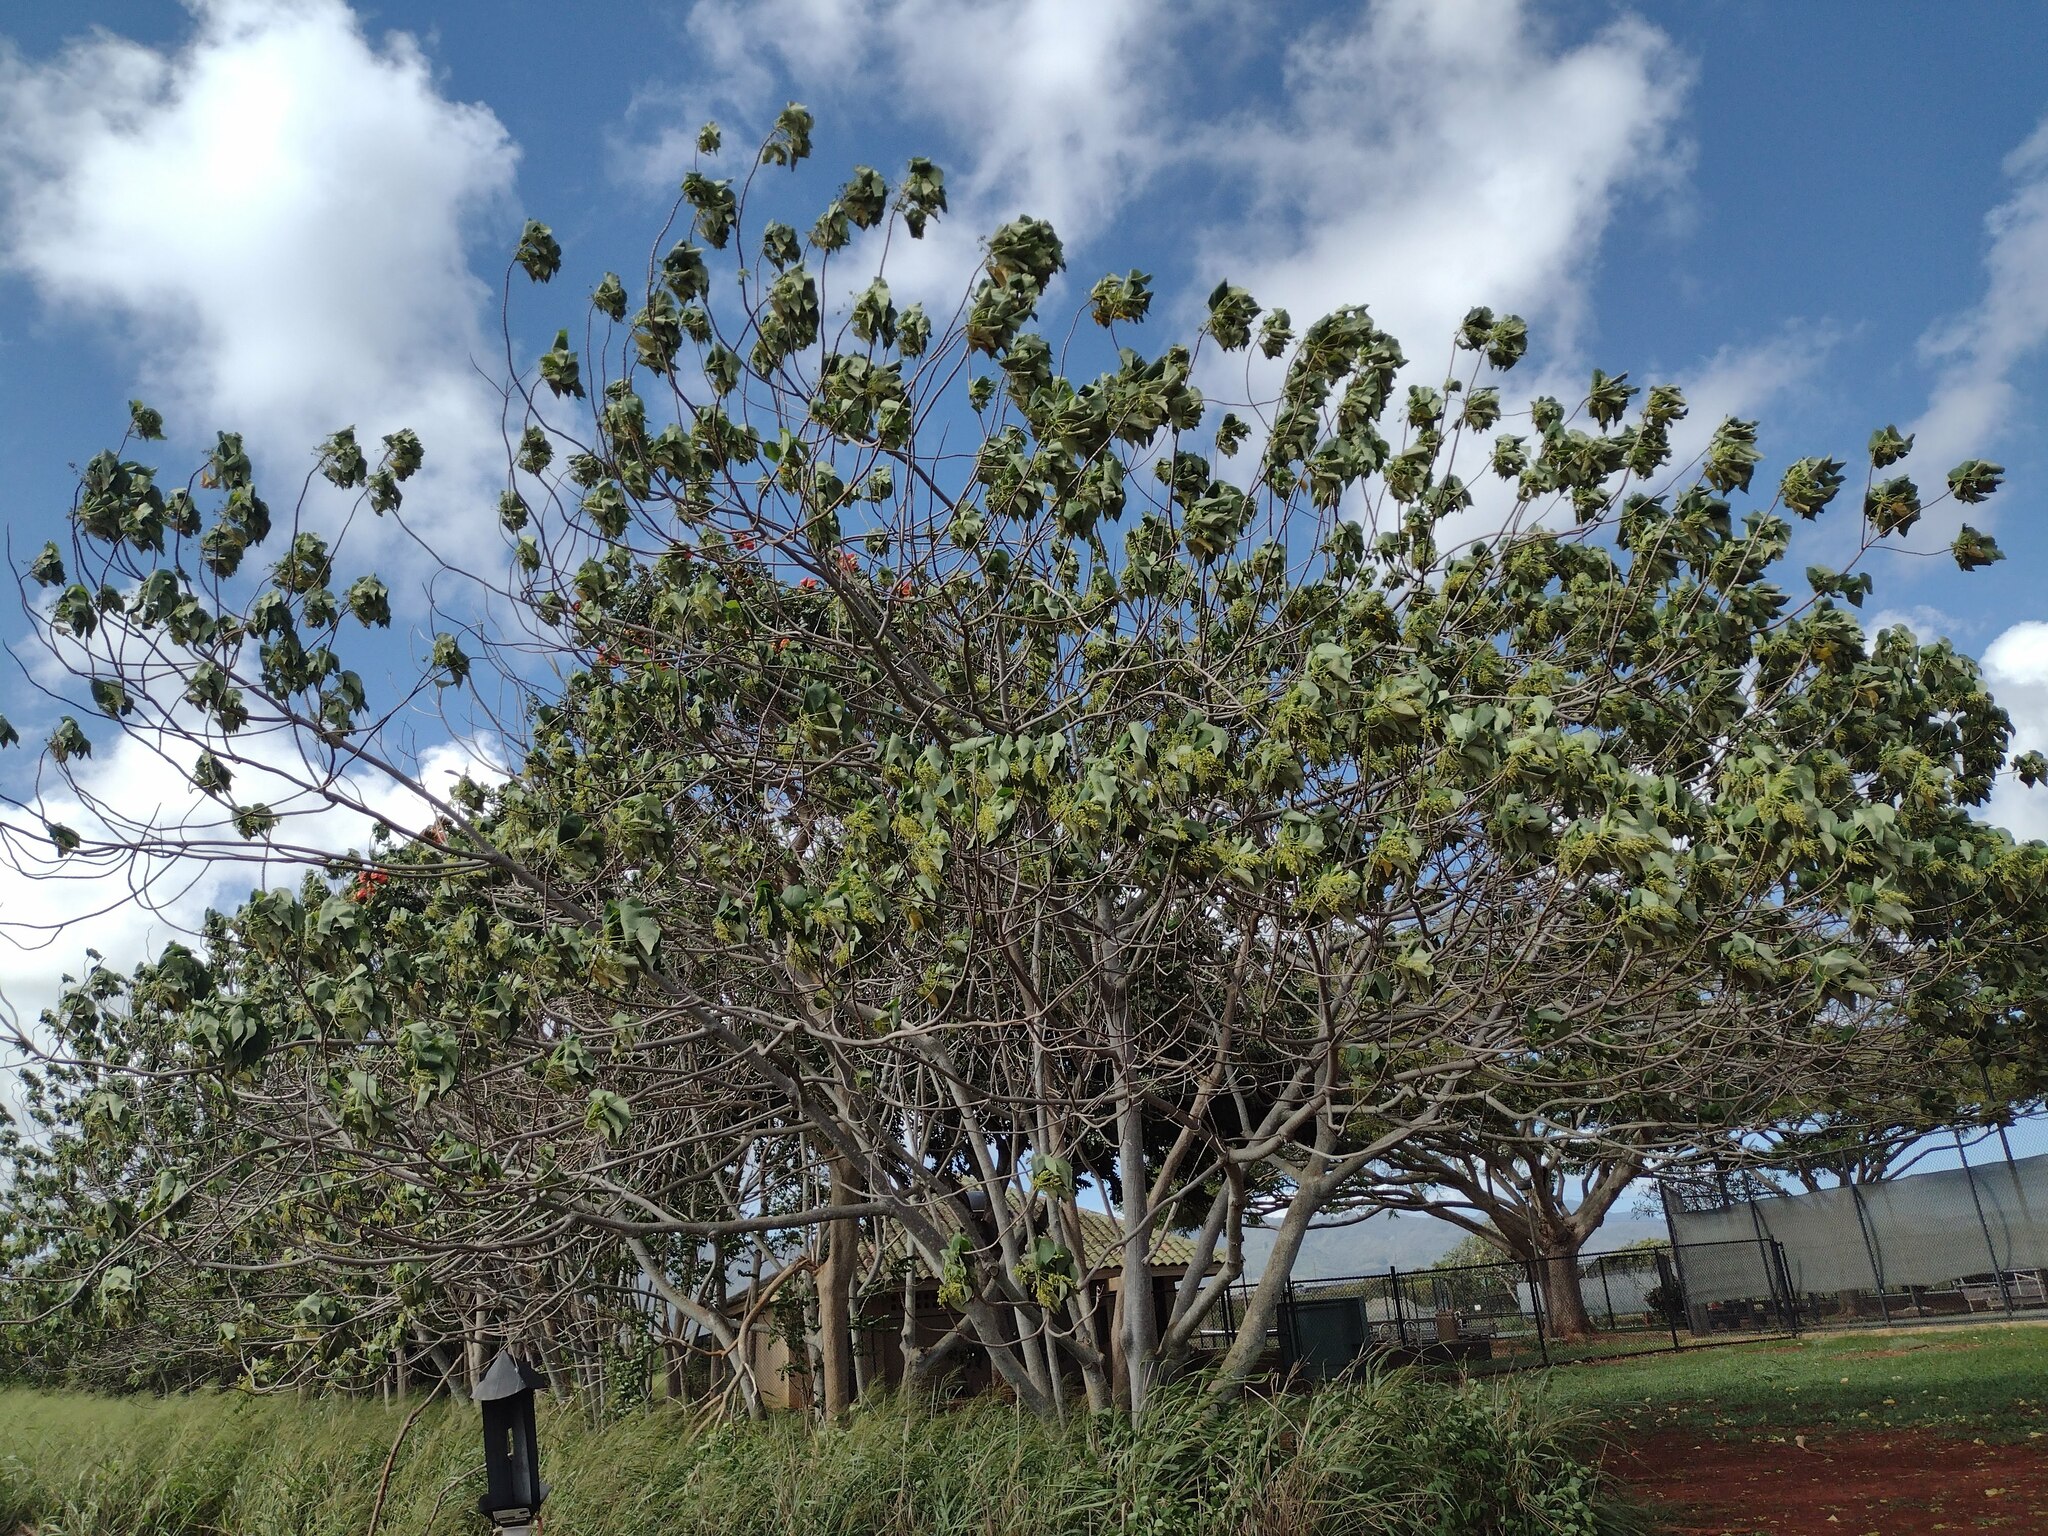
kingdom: Plantae
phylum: Tracheophyta
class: Magnoliopsida
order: Malpighiales
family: Euphorbiaceae
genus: Macaranga
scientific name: Macaranga tanarius
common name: Parasol leaf tree
